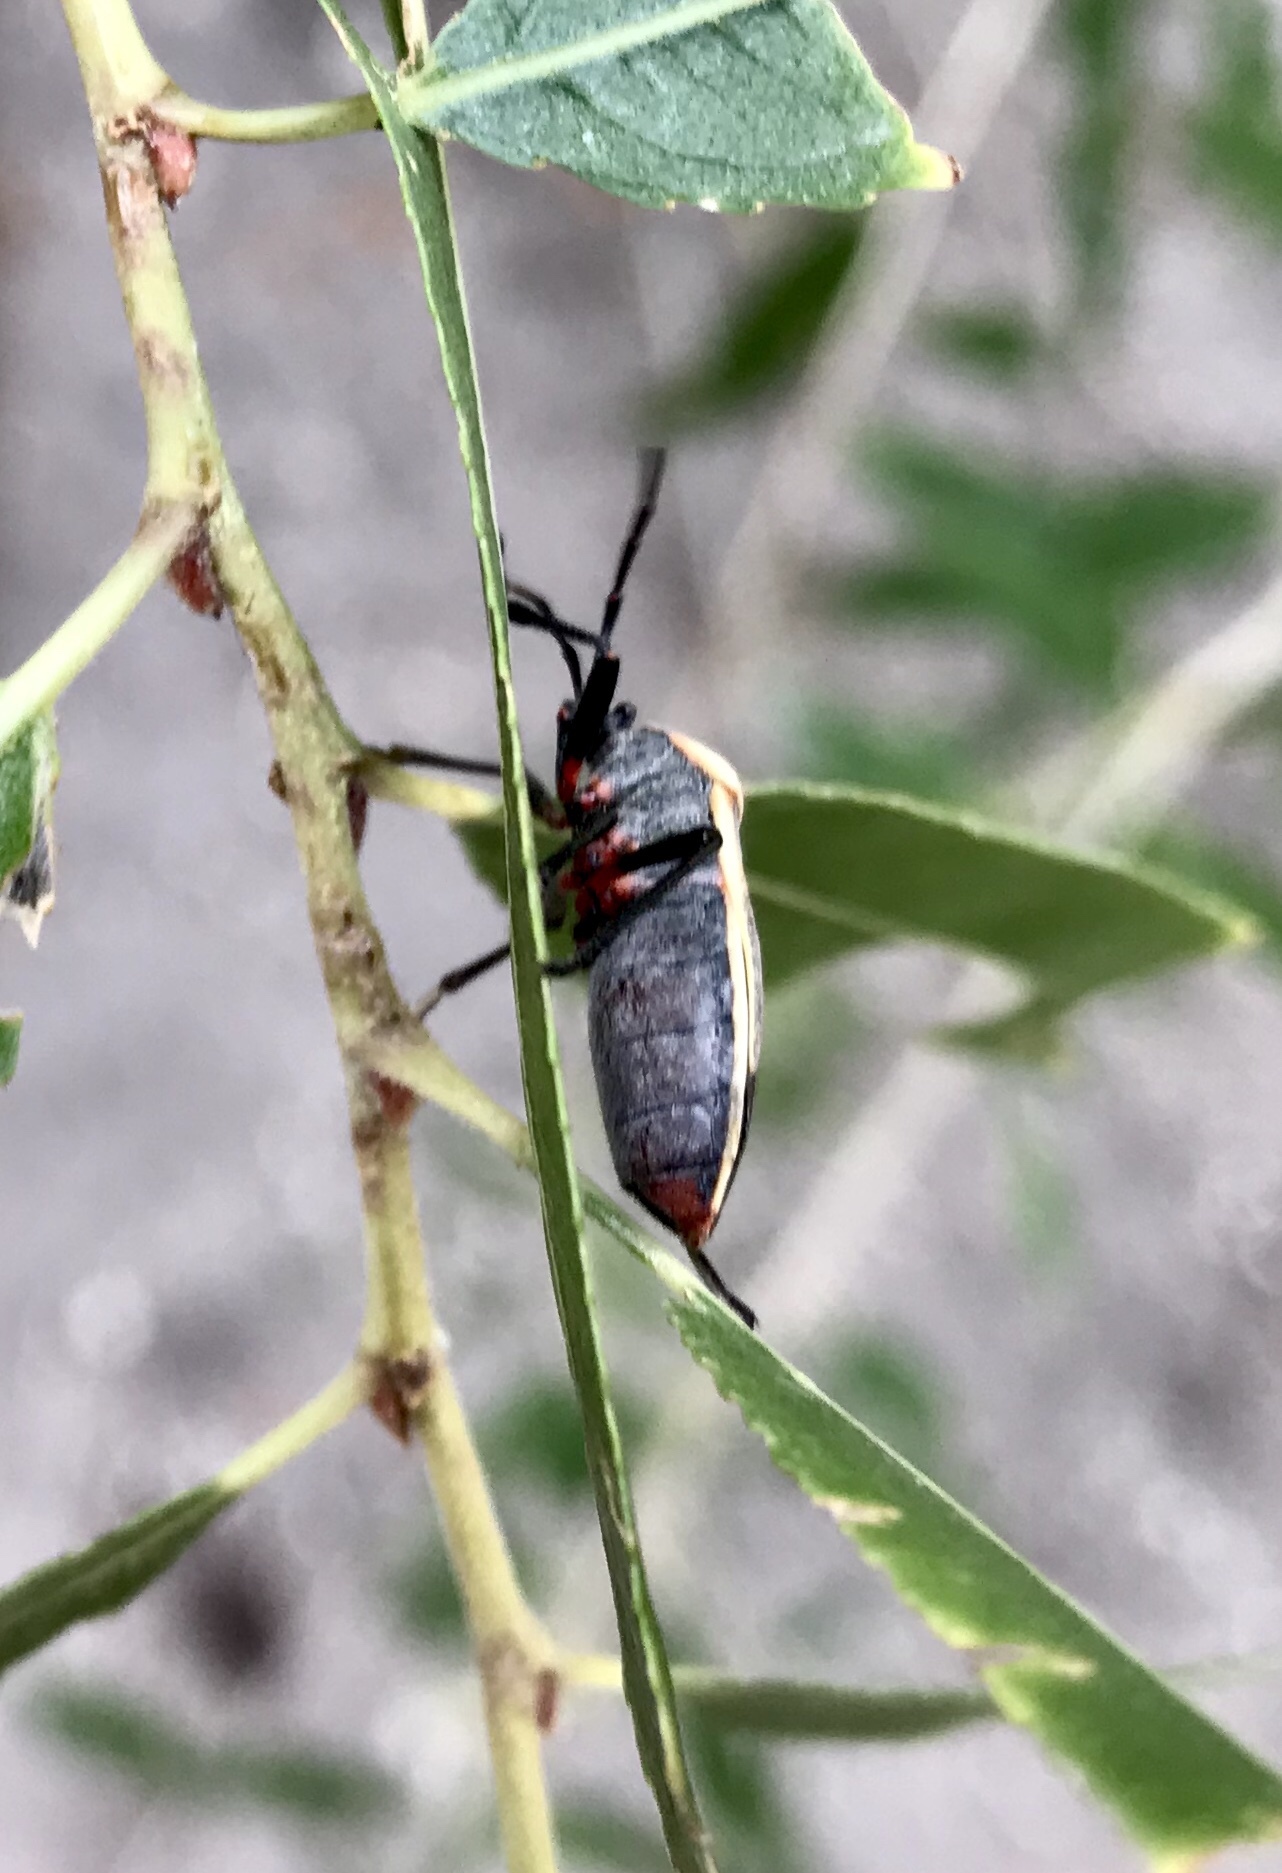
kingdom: Animalia
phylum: Arthropoda
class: Insecta
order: Hemiptera
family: Largidae
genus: Largus
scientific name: Largus californicus
